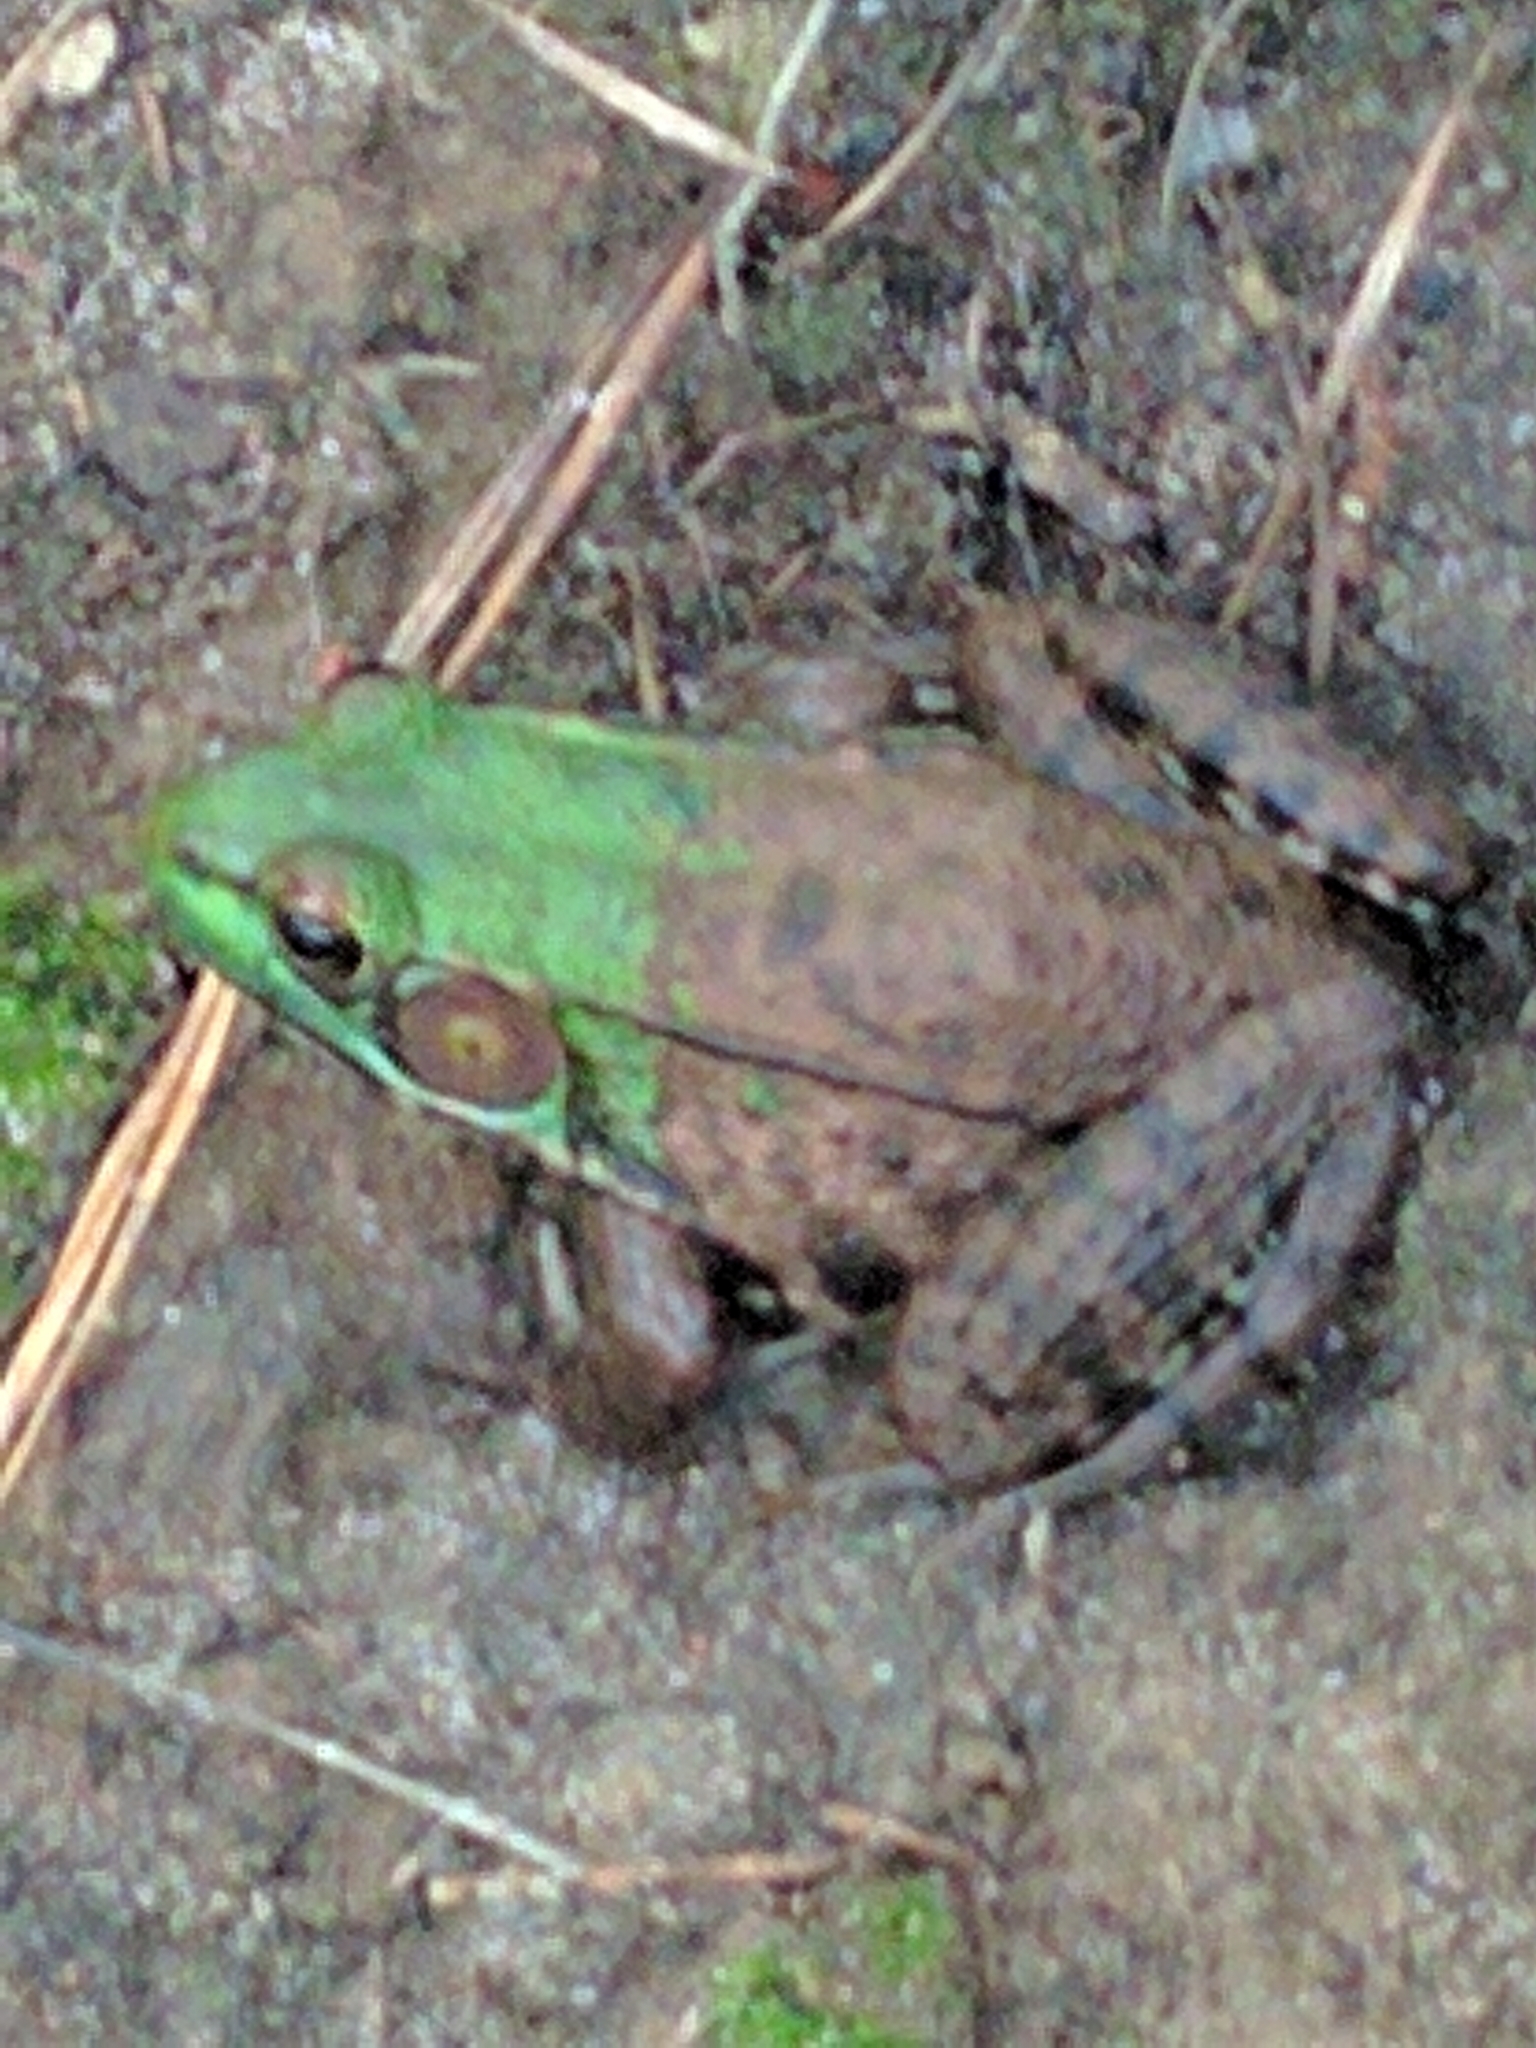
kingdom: Animalia
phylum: Chordata
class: Amphibia
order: Anura
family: Ranidae
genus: Lithobates
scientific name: Lithobates clamitans
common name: Green frog
